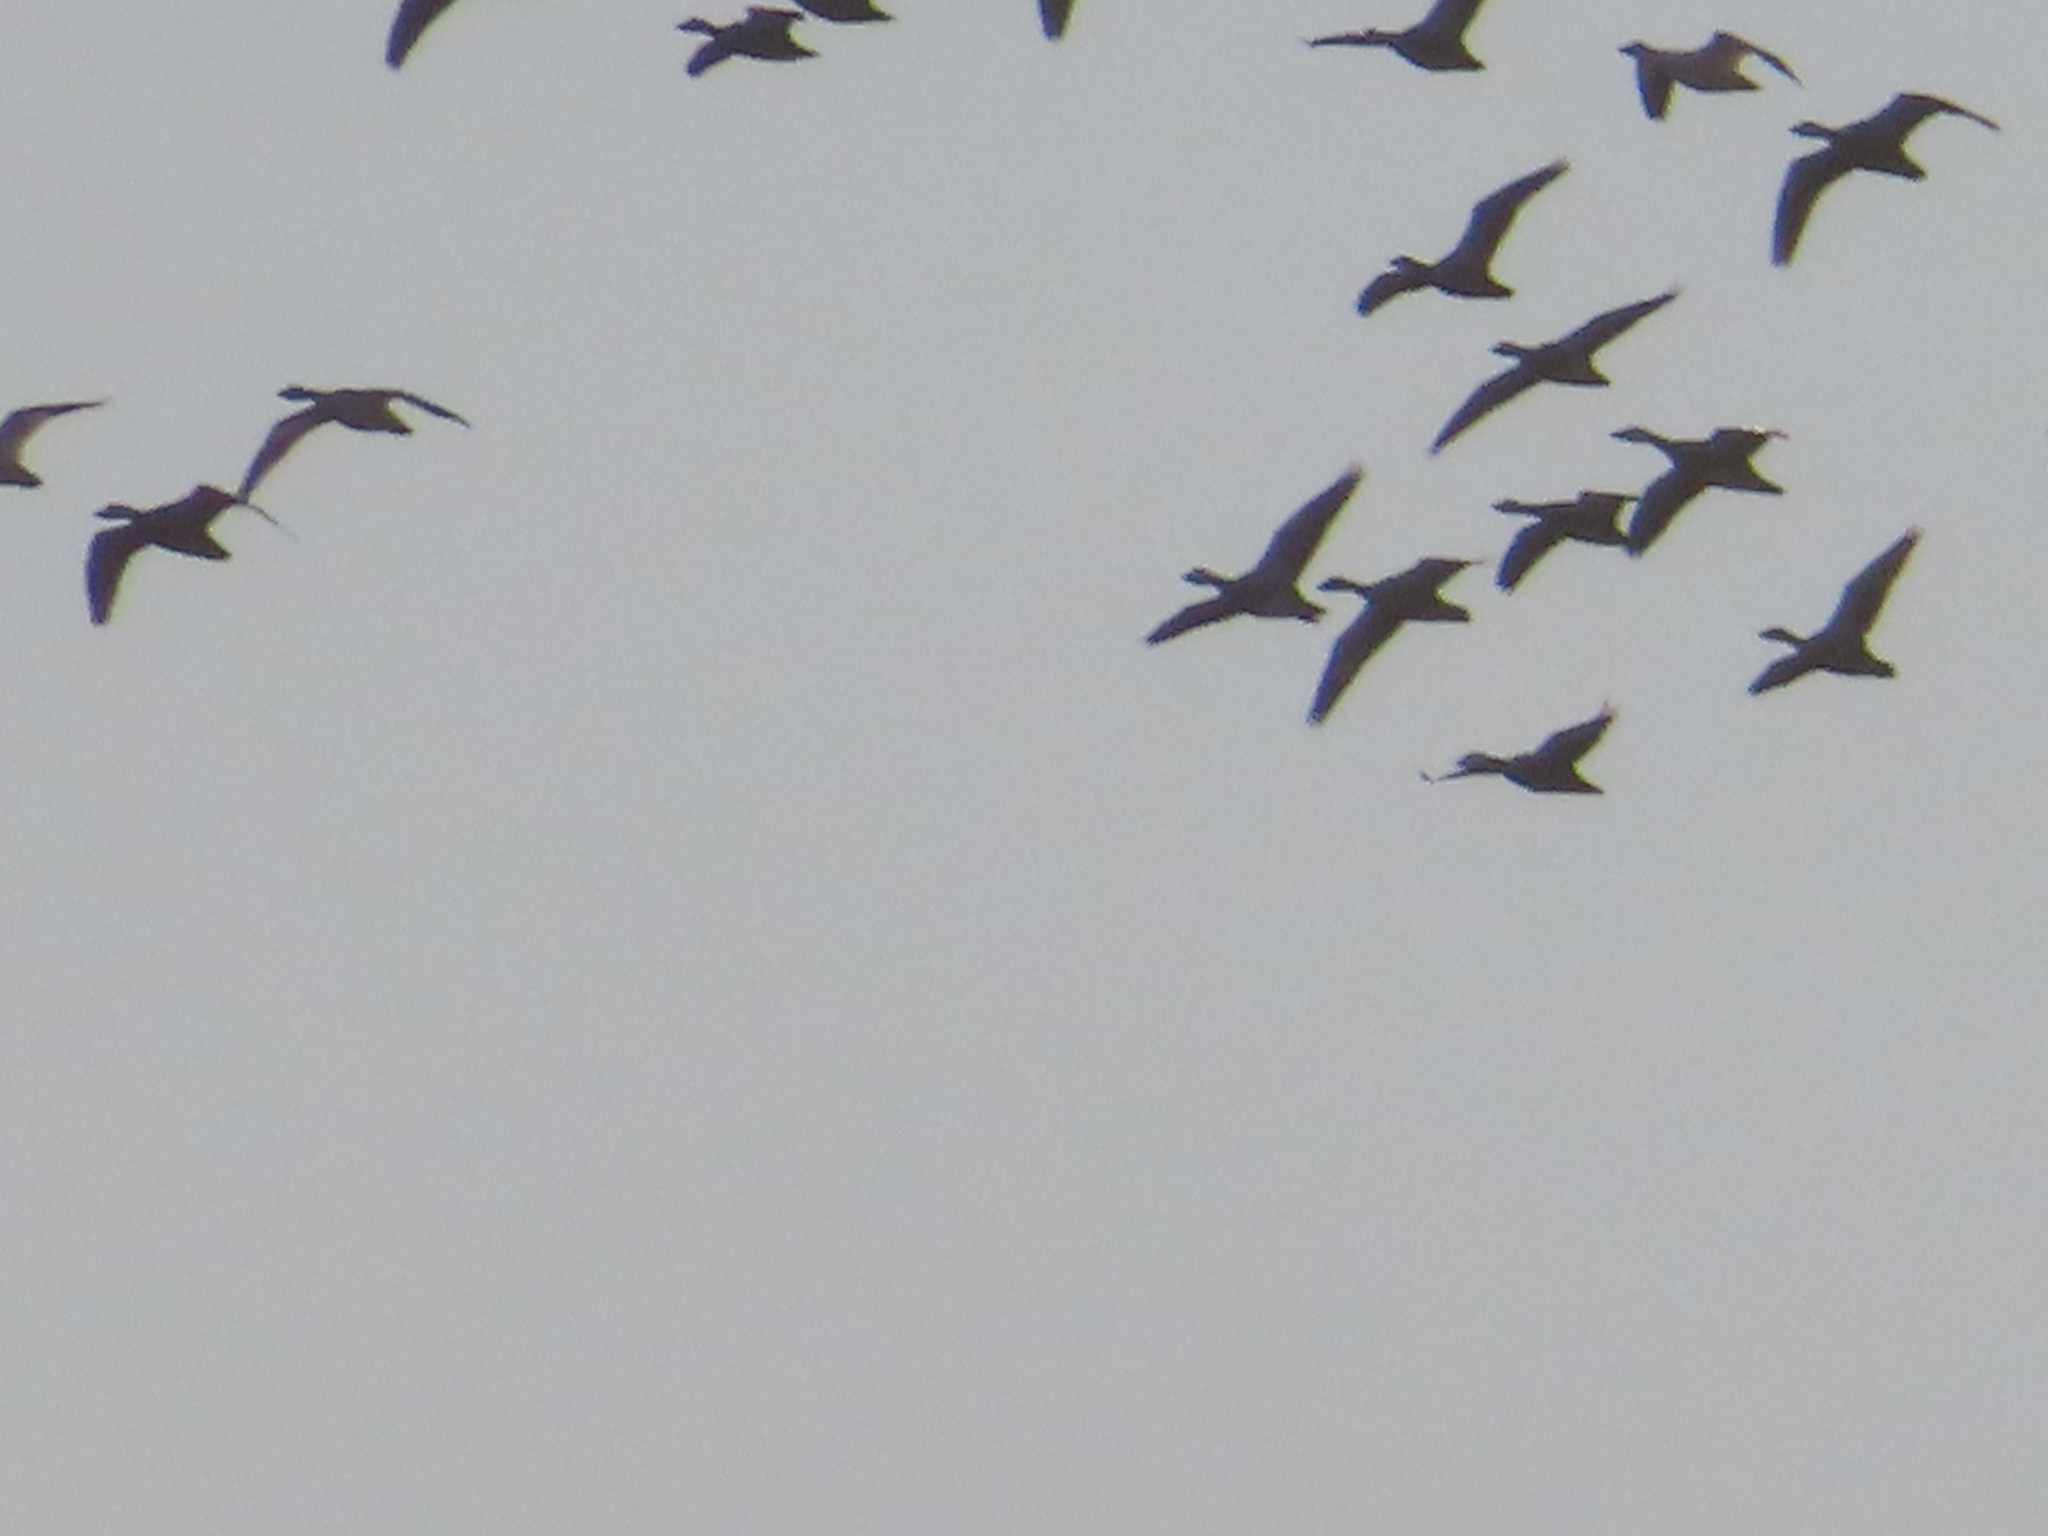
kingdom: Animalia
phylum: Chordata
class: Aves
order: Anseriformes
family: Anatidae
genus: Anser
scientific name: Anser caerulescens
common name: Snow goose
